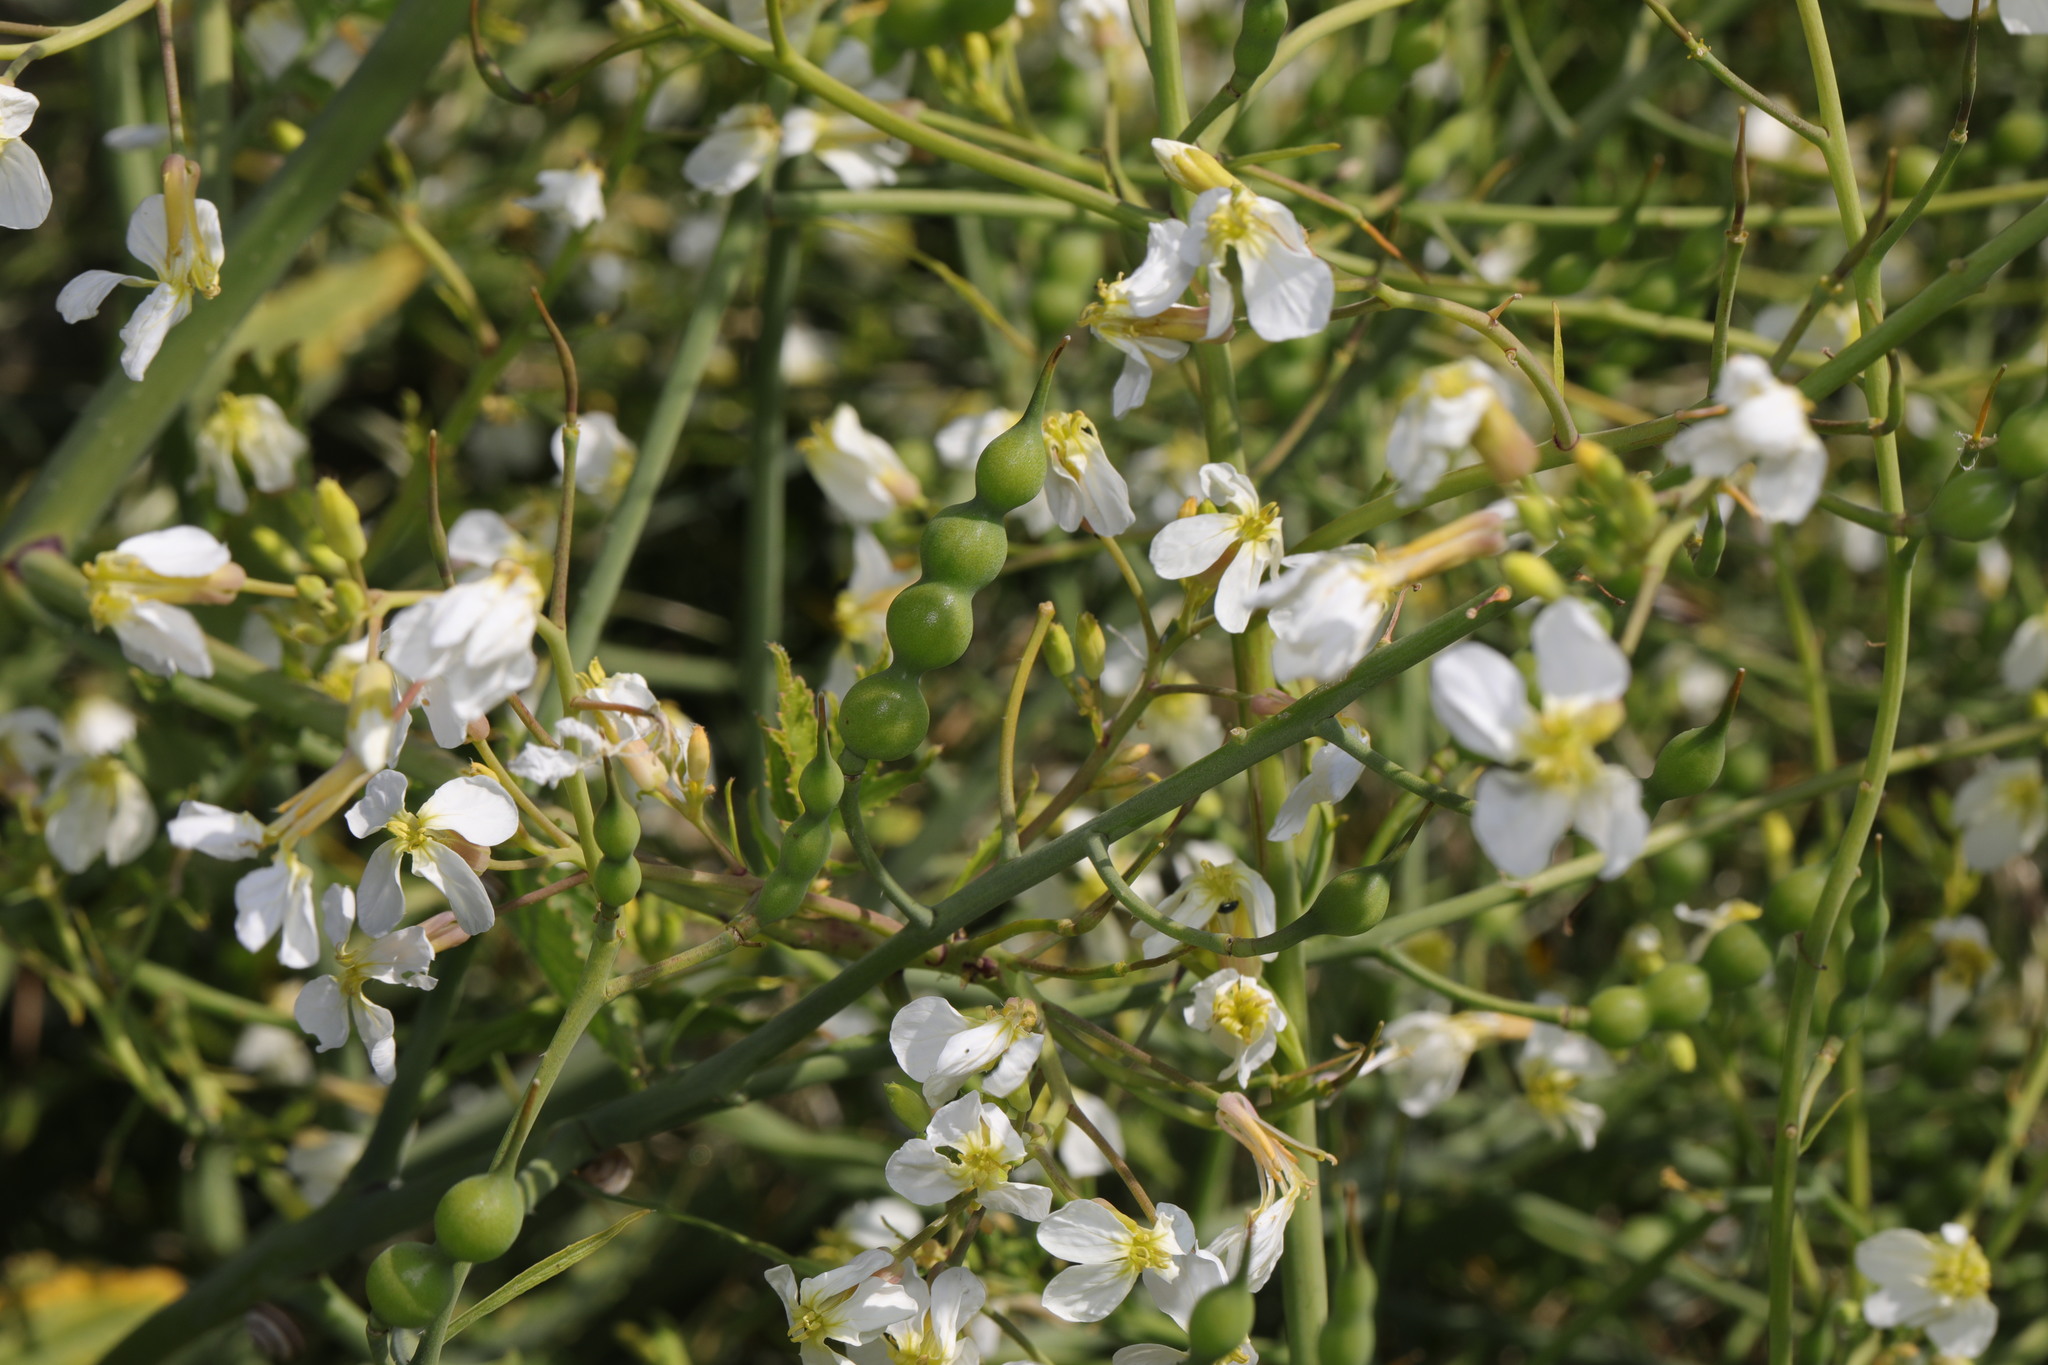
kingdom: Plantae
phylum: Tracheophyta
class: Magnoliopsida
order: Brassicales
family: Brassicaceae
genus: Raphanus
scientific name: Raphanus raphanistrum
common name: Wild radish
